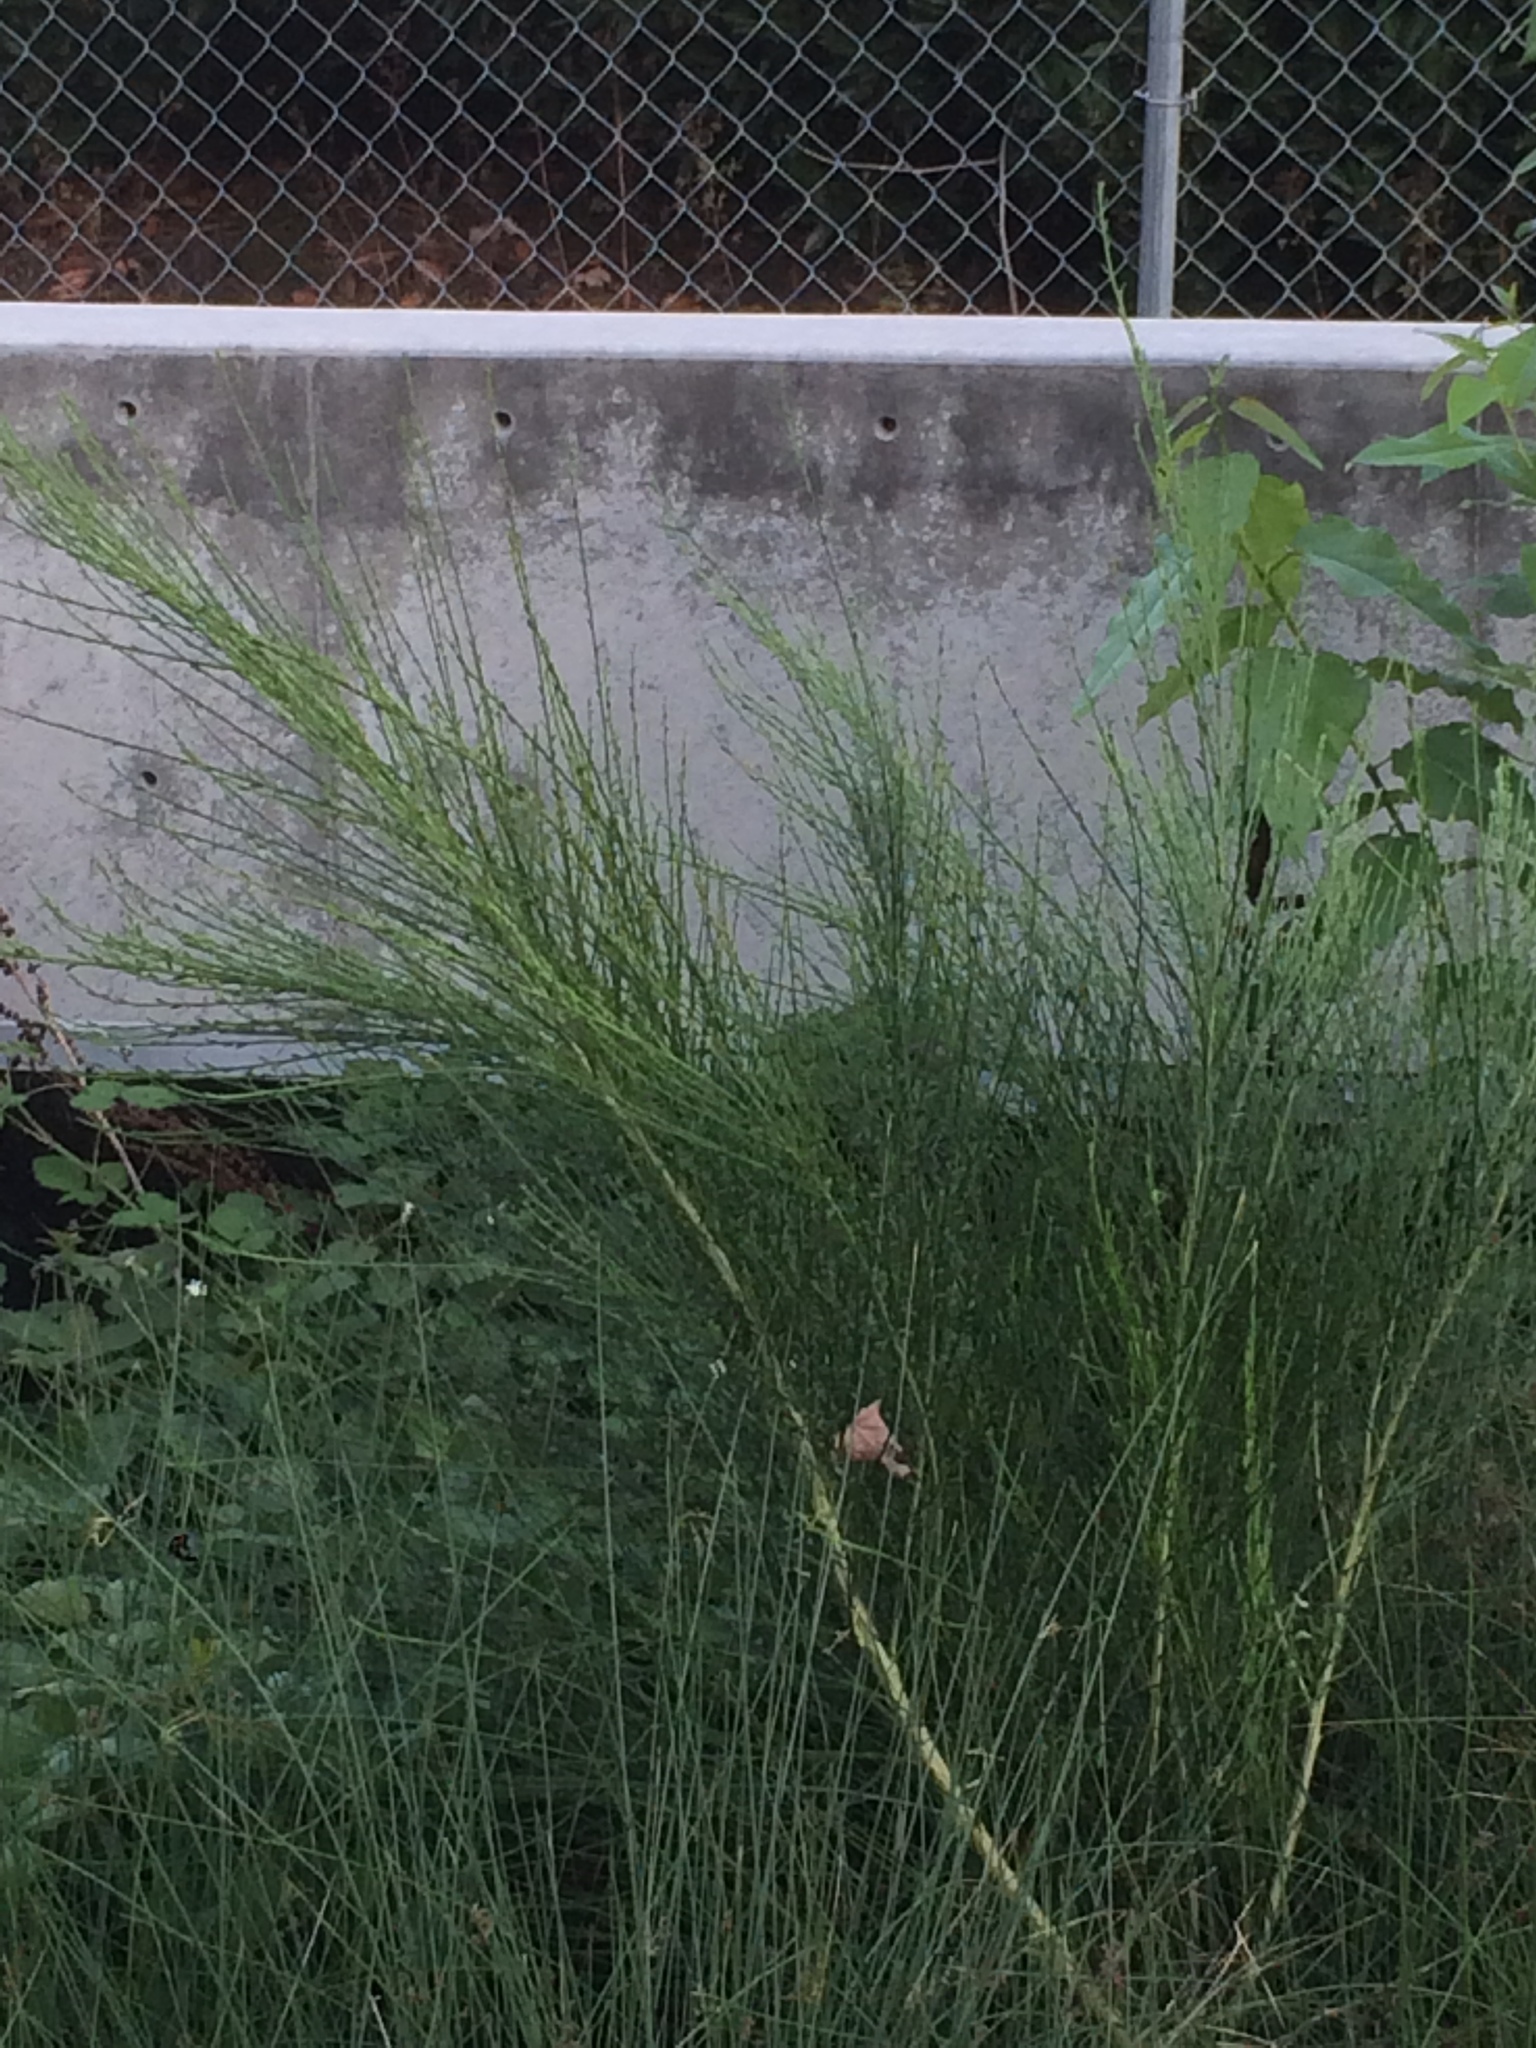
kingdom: Plantae
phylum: Tracheophyta
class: Magnoliopsida
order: Fabales
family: Fabaceae
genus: Cytisus
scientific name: Cytisus scoparius
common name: Scotch broom
